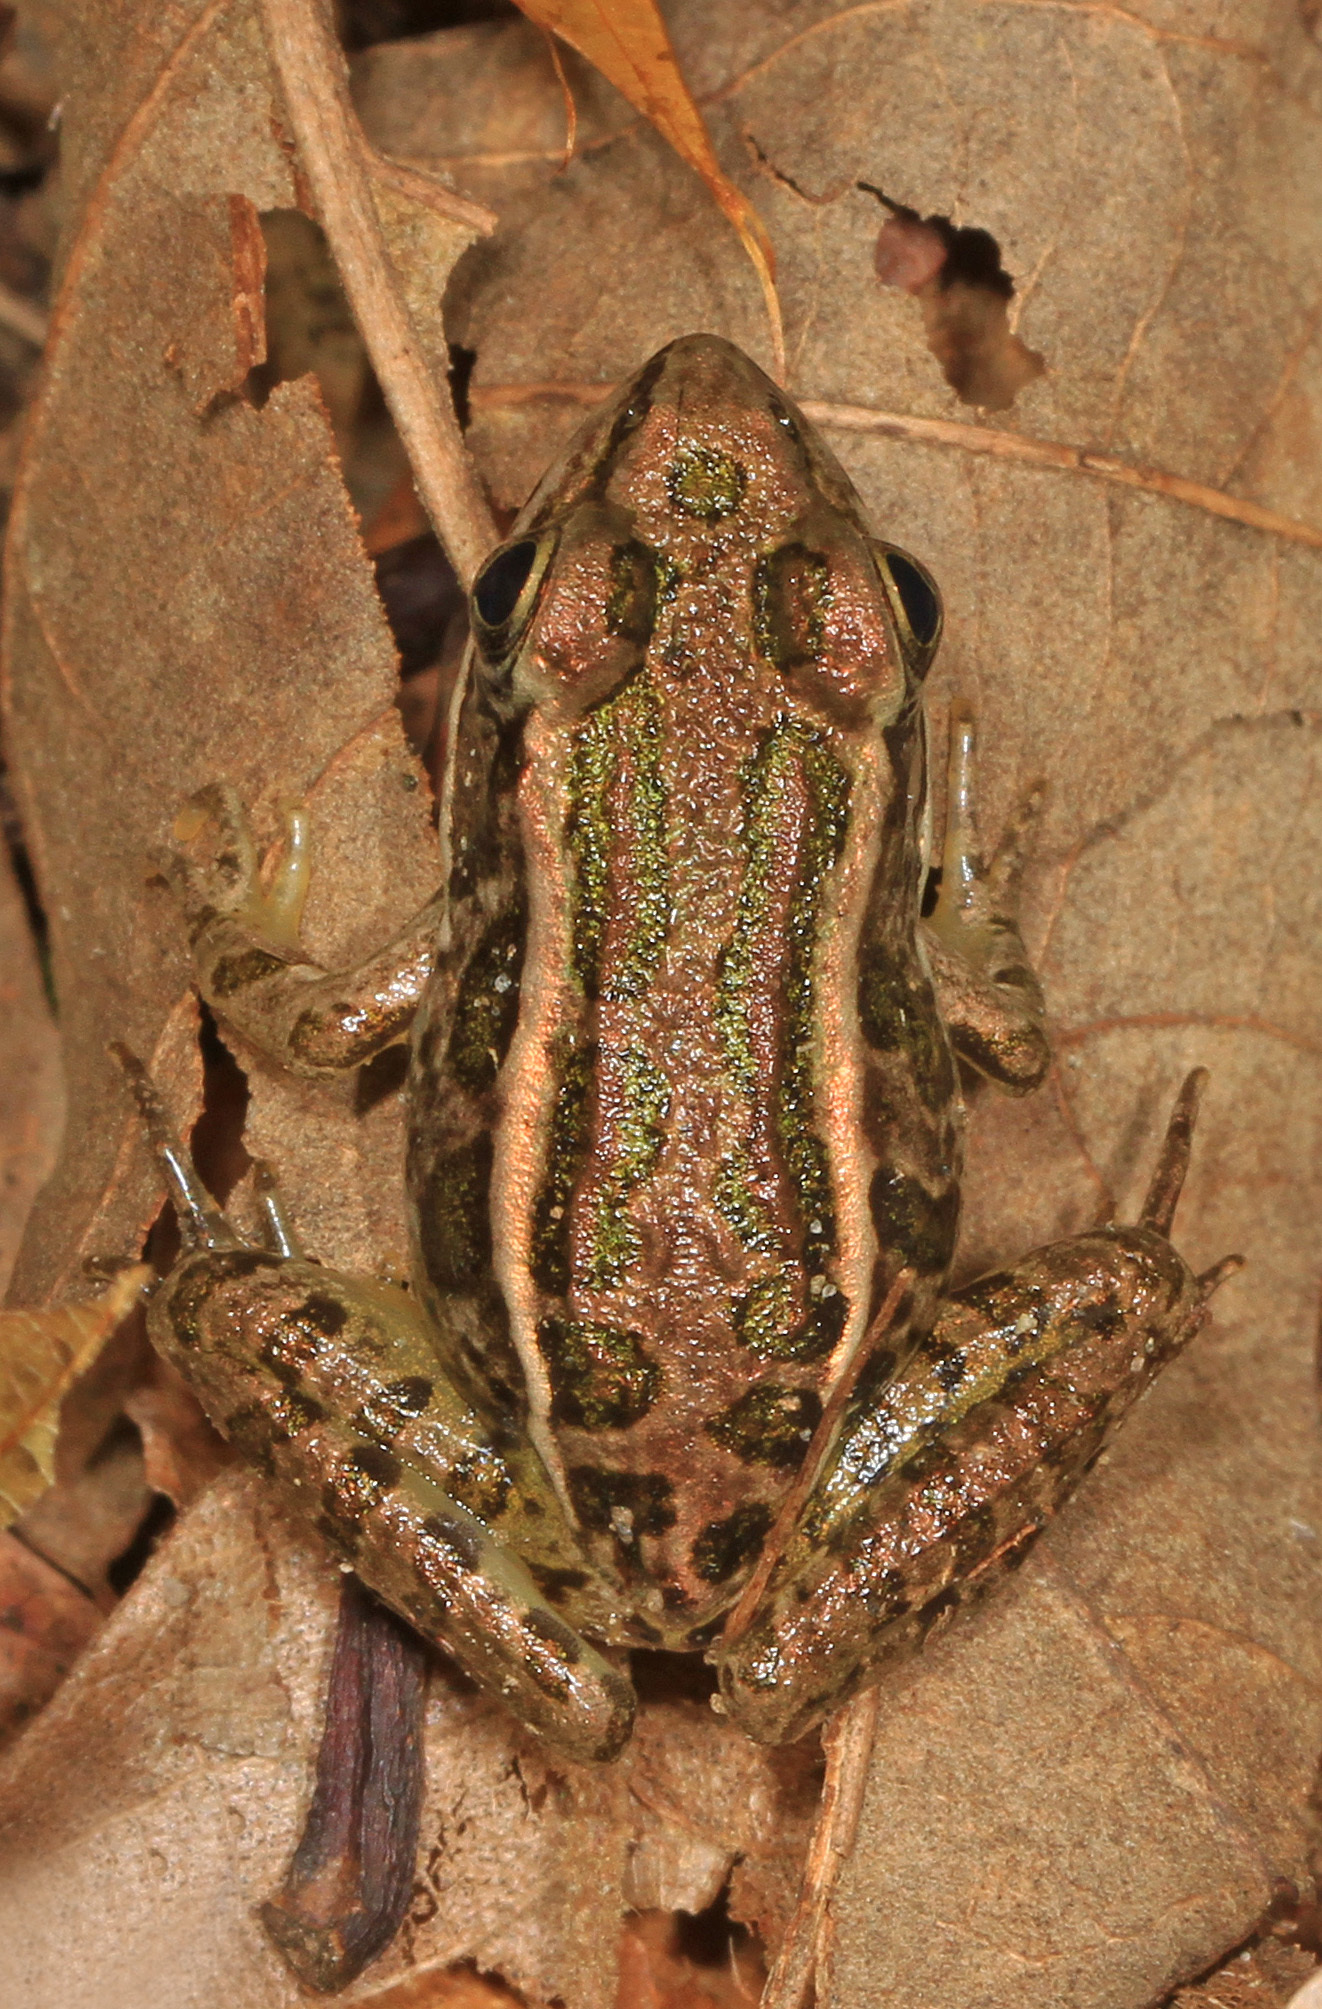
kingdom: Animalia
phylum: Chordata
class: Amphibia
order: Anura
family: Ranidae
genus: Lithobates
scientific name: Lithobates palustris
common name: Pickerel frog
